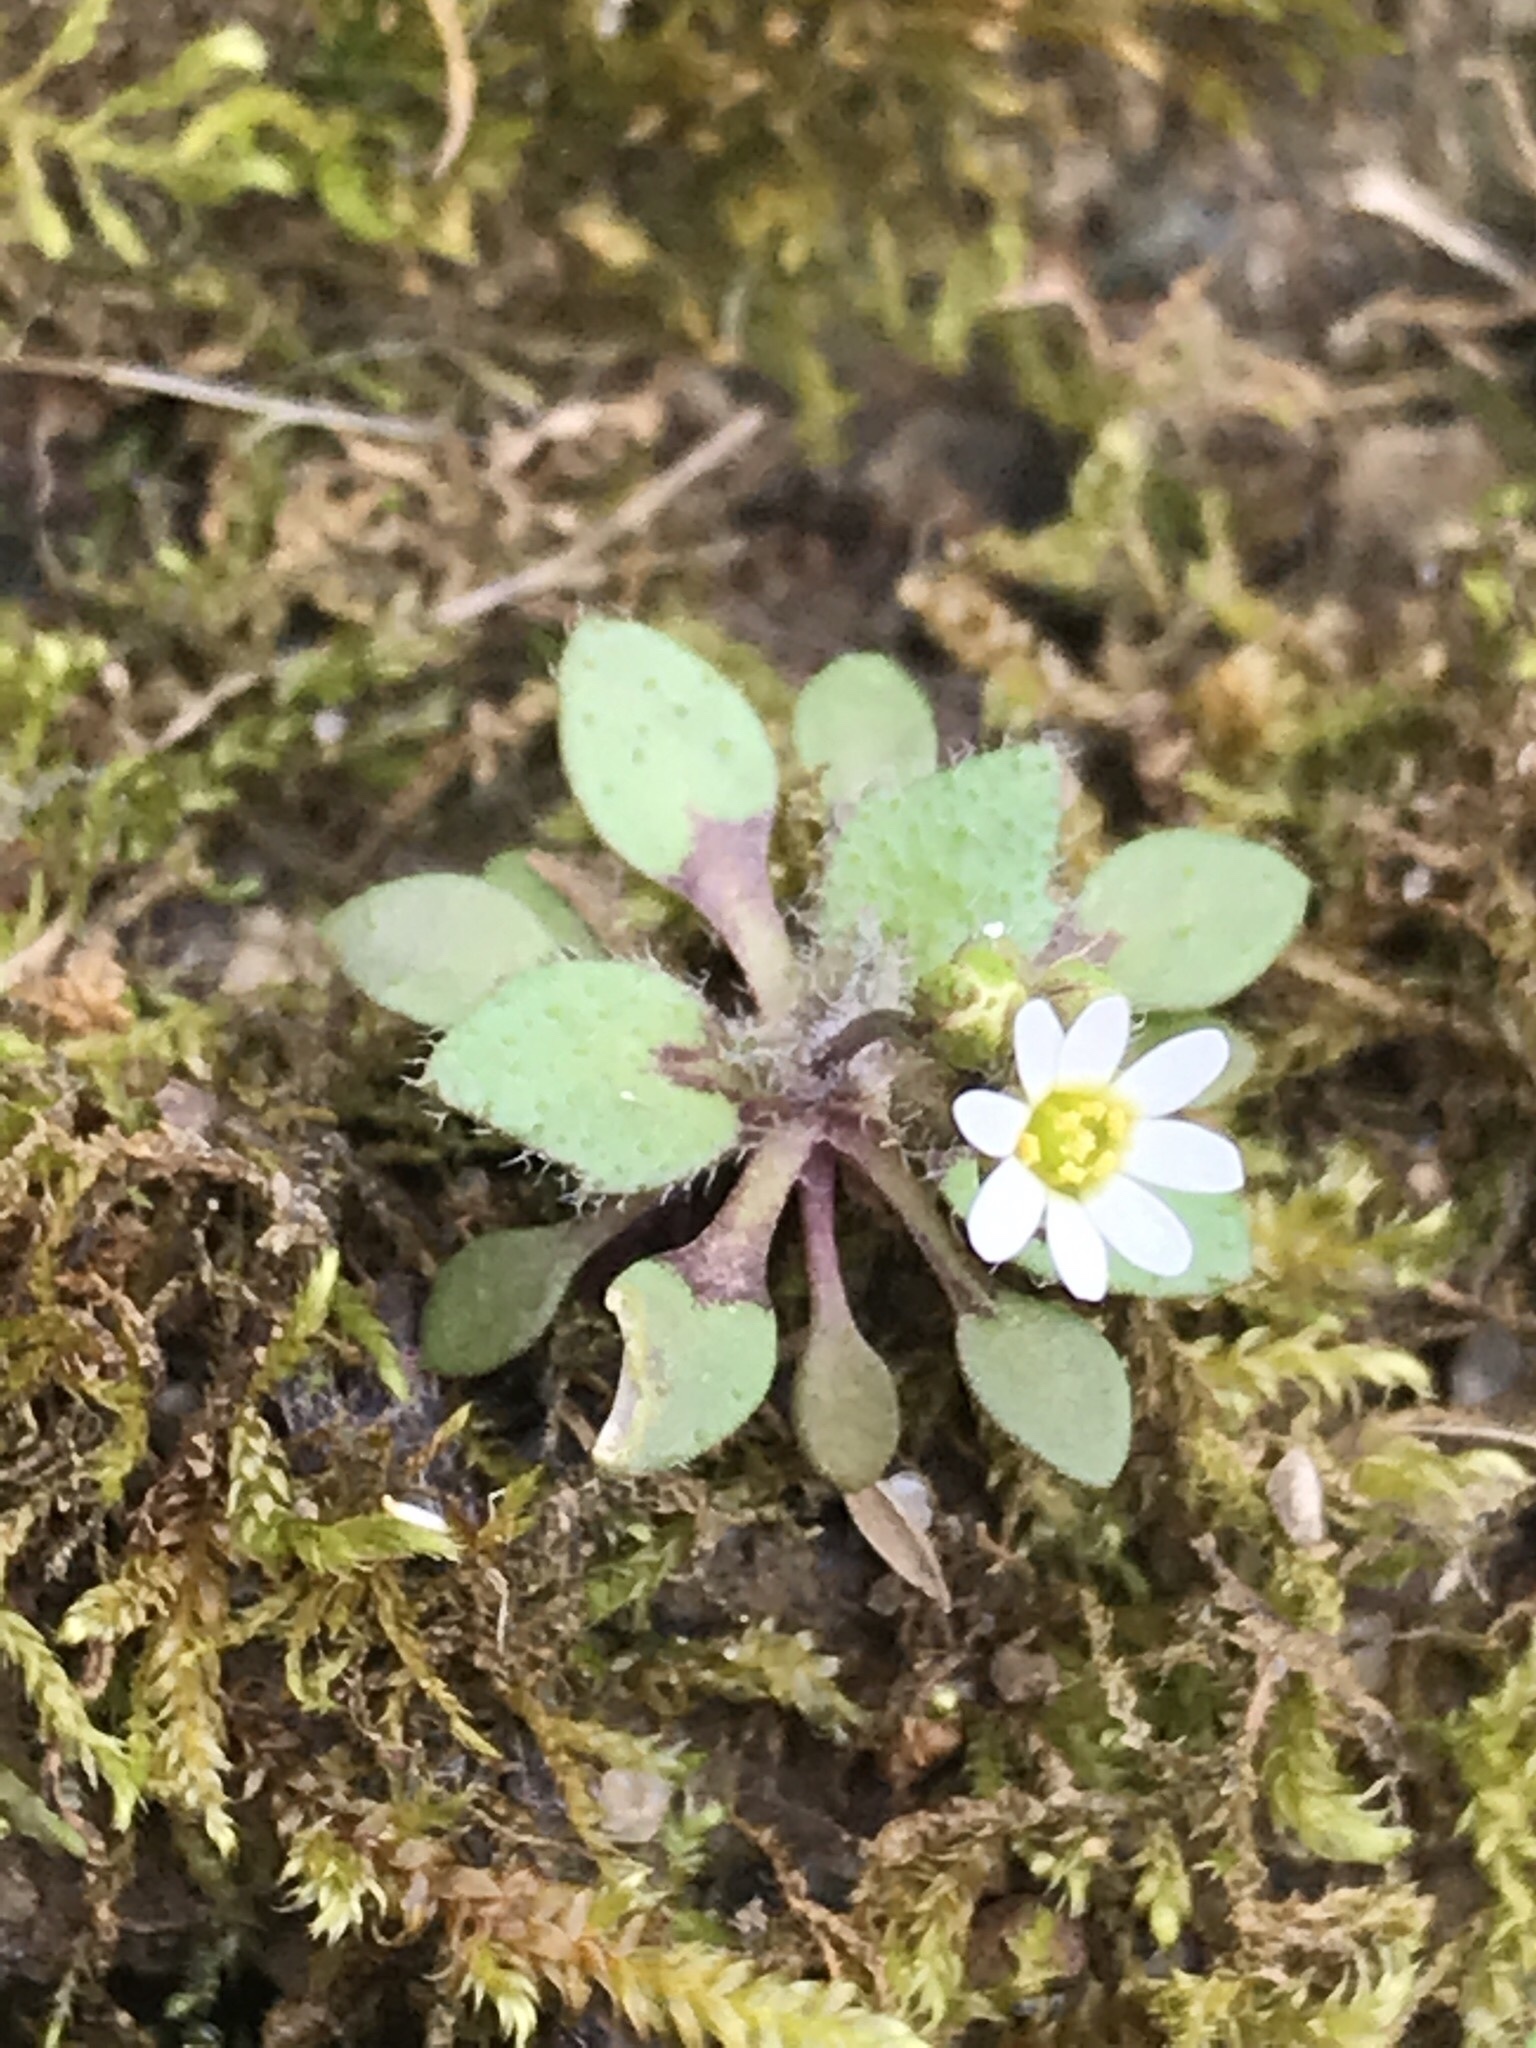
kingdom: Plantae
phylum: Tracheophyta
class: Magnoliopsida
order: Brassicales
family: Brassicaceae
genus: Draba
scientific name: Draba verna
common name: Spring draba
